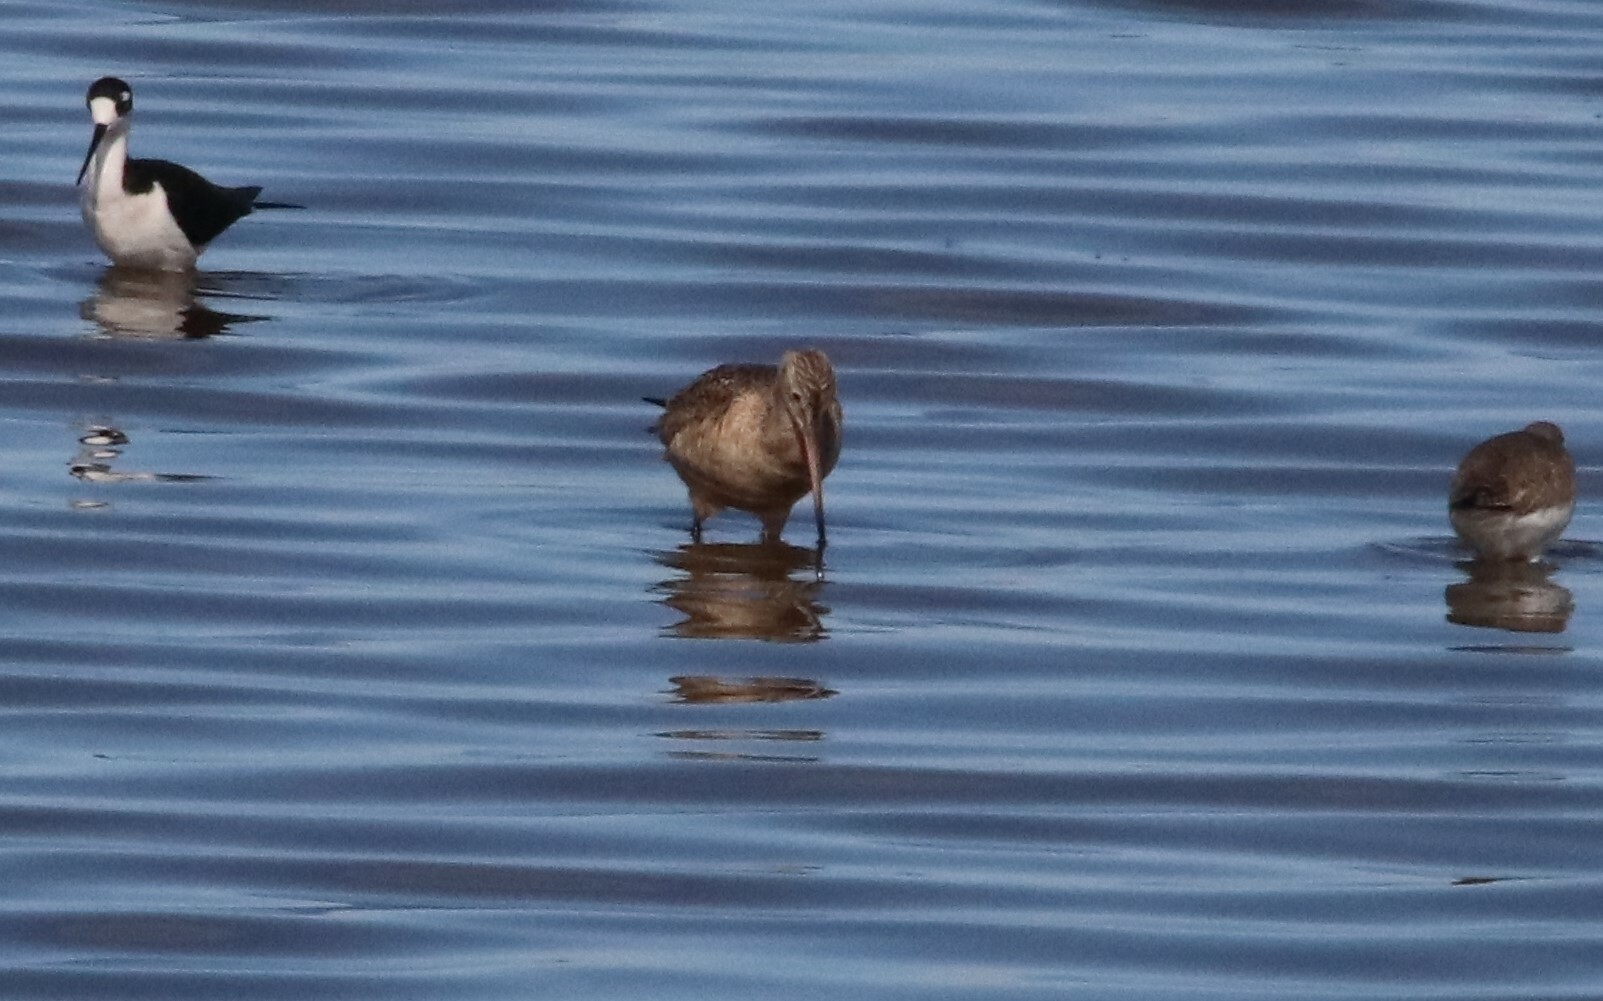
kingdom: Animalia
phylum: Chordata
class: Aves
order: Charadriiformes
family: Scolopacidae
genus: Limosa
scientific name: Limosa fedoa
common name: Marbled godwit
